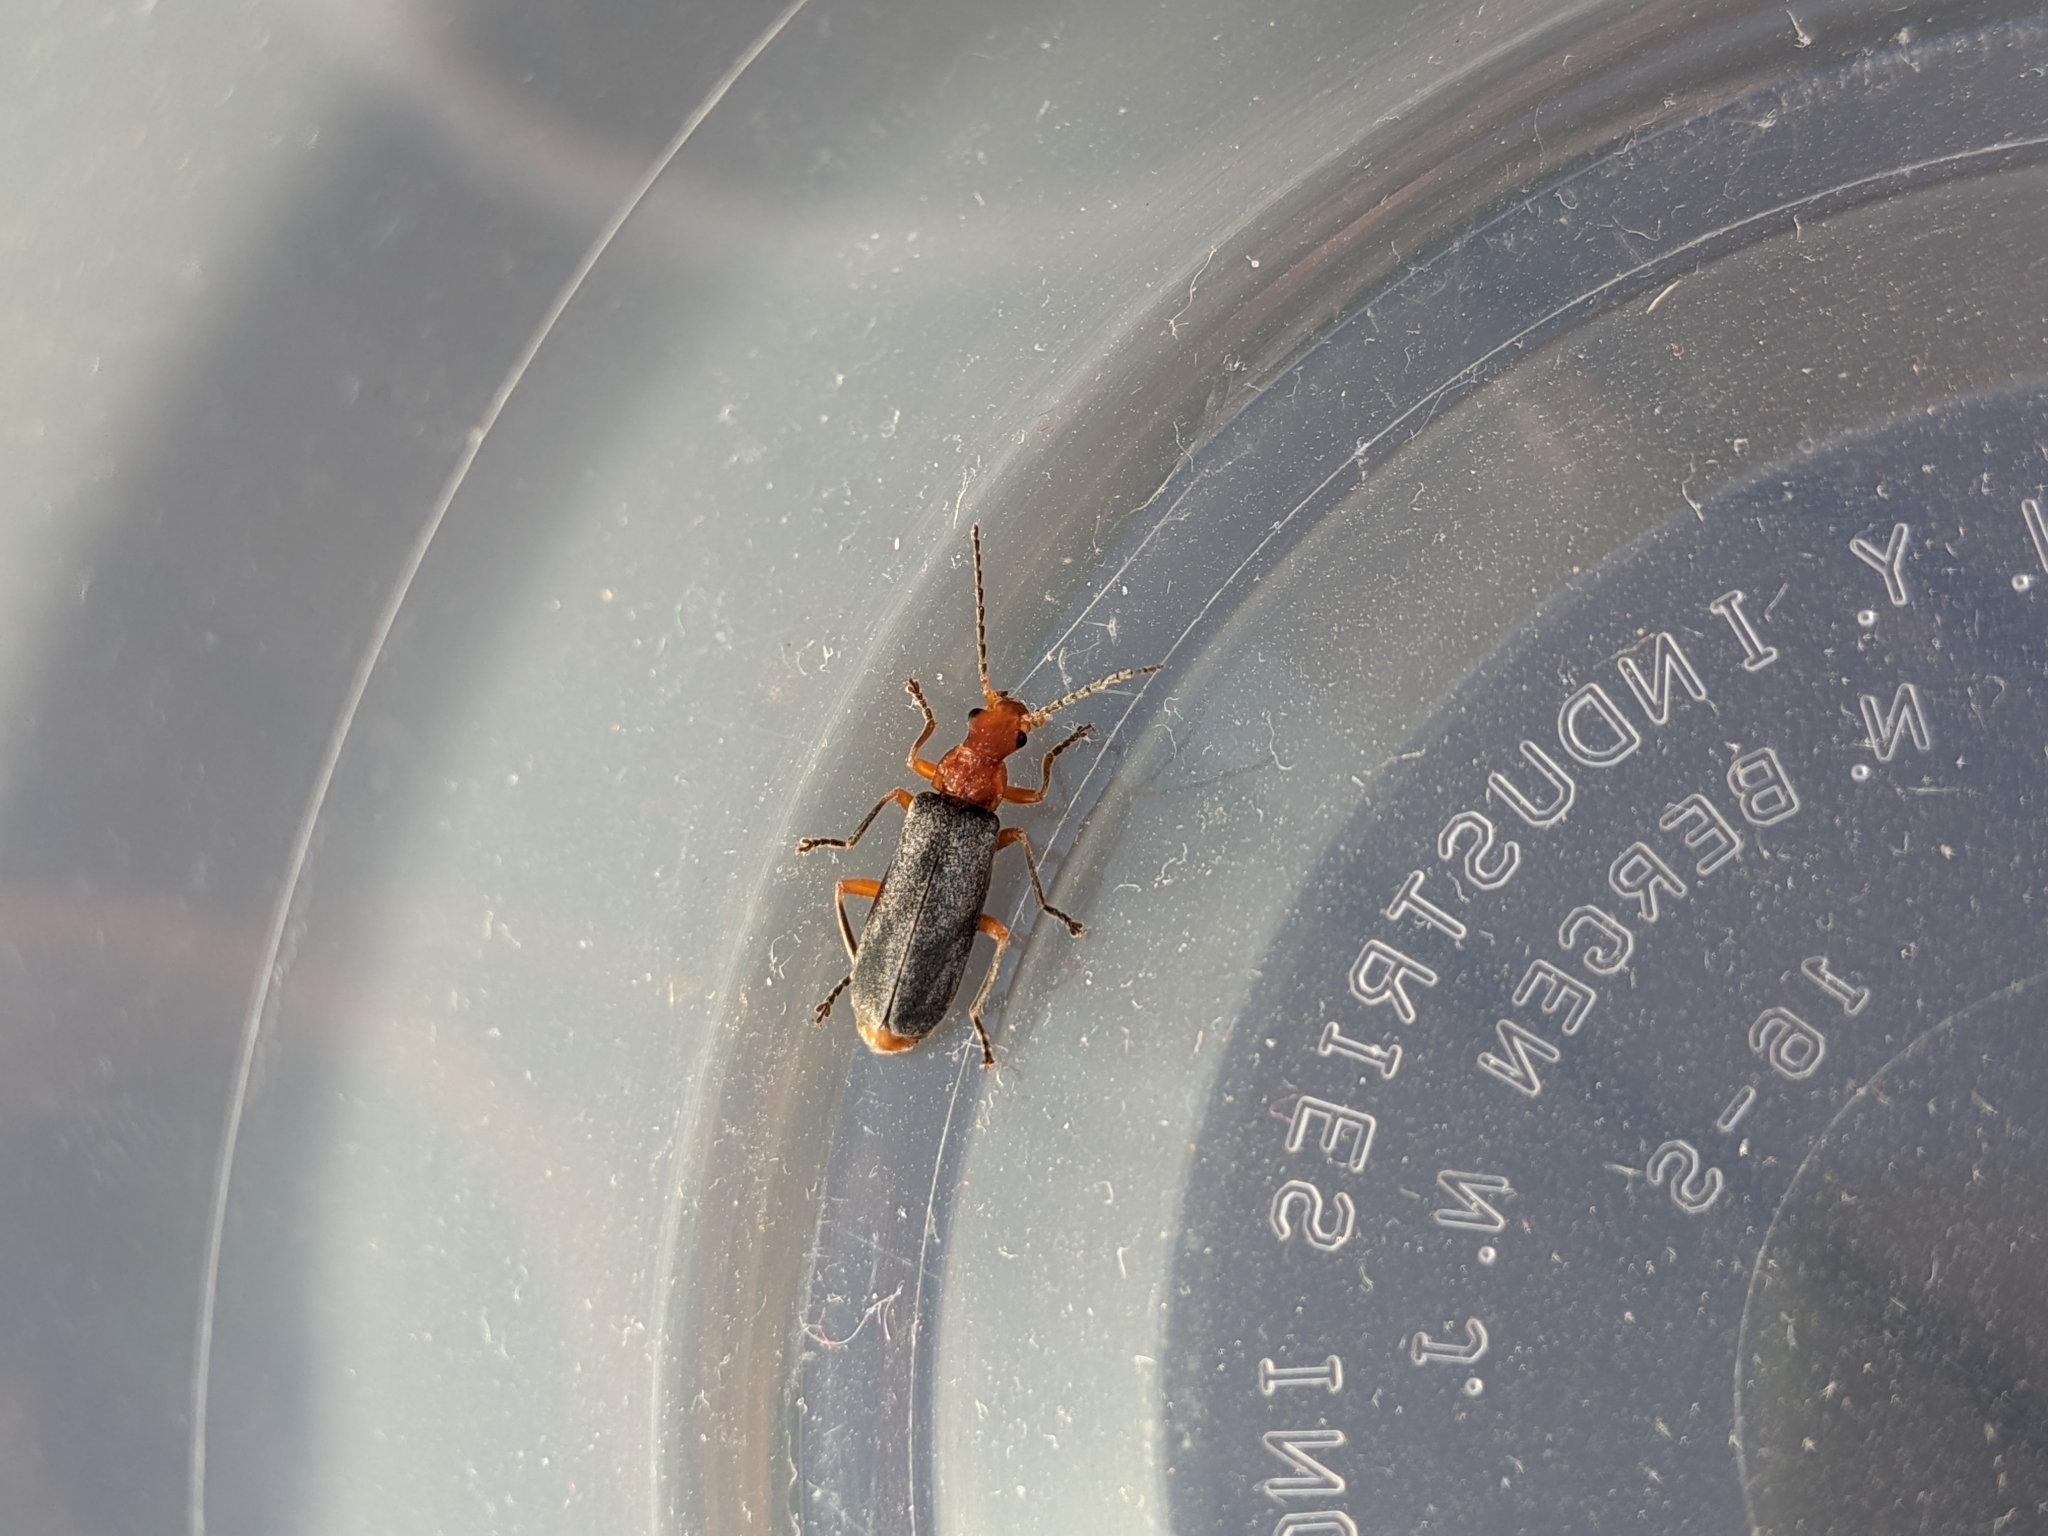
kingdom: Animalia
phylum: Arthropoda
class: Insecta
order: Coleoptera
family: Cantharidae
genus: Podabrus
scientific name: Podabrus tomentosus
